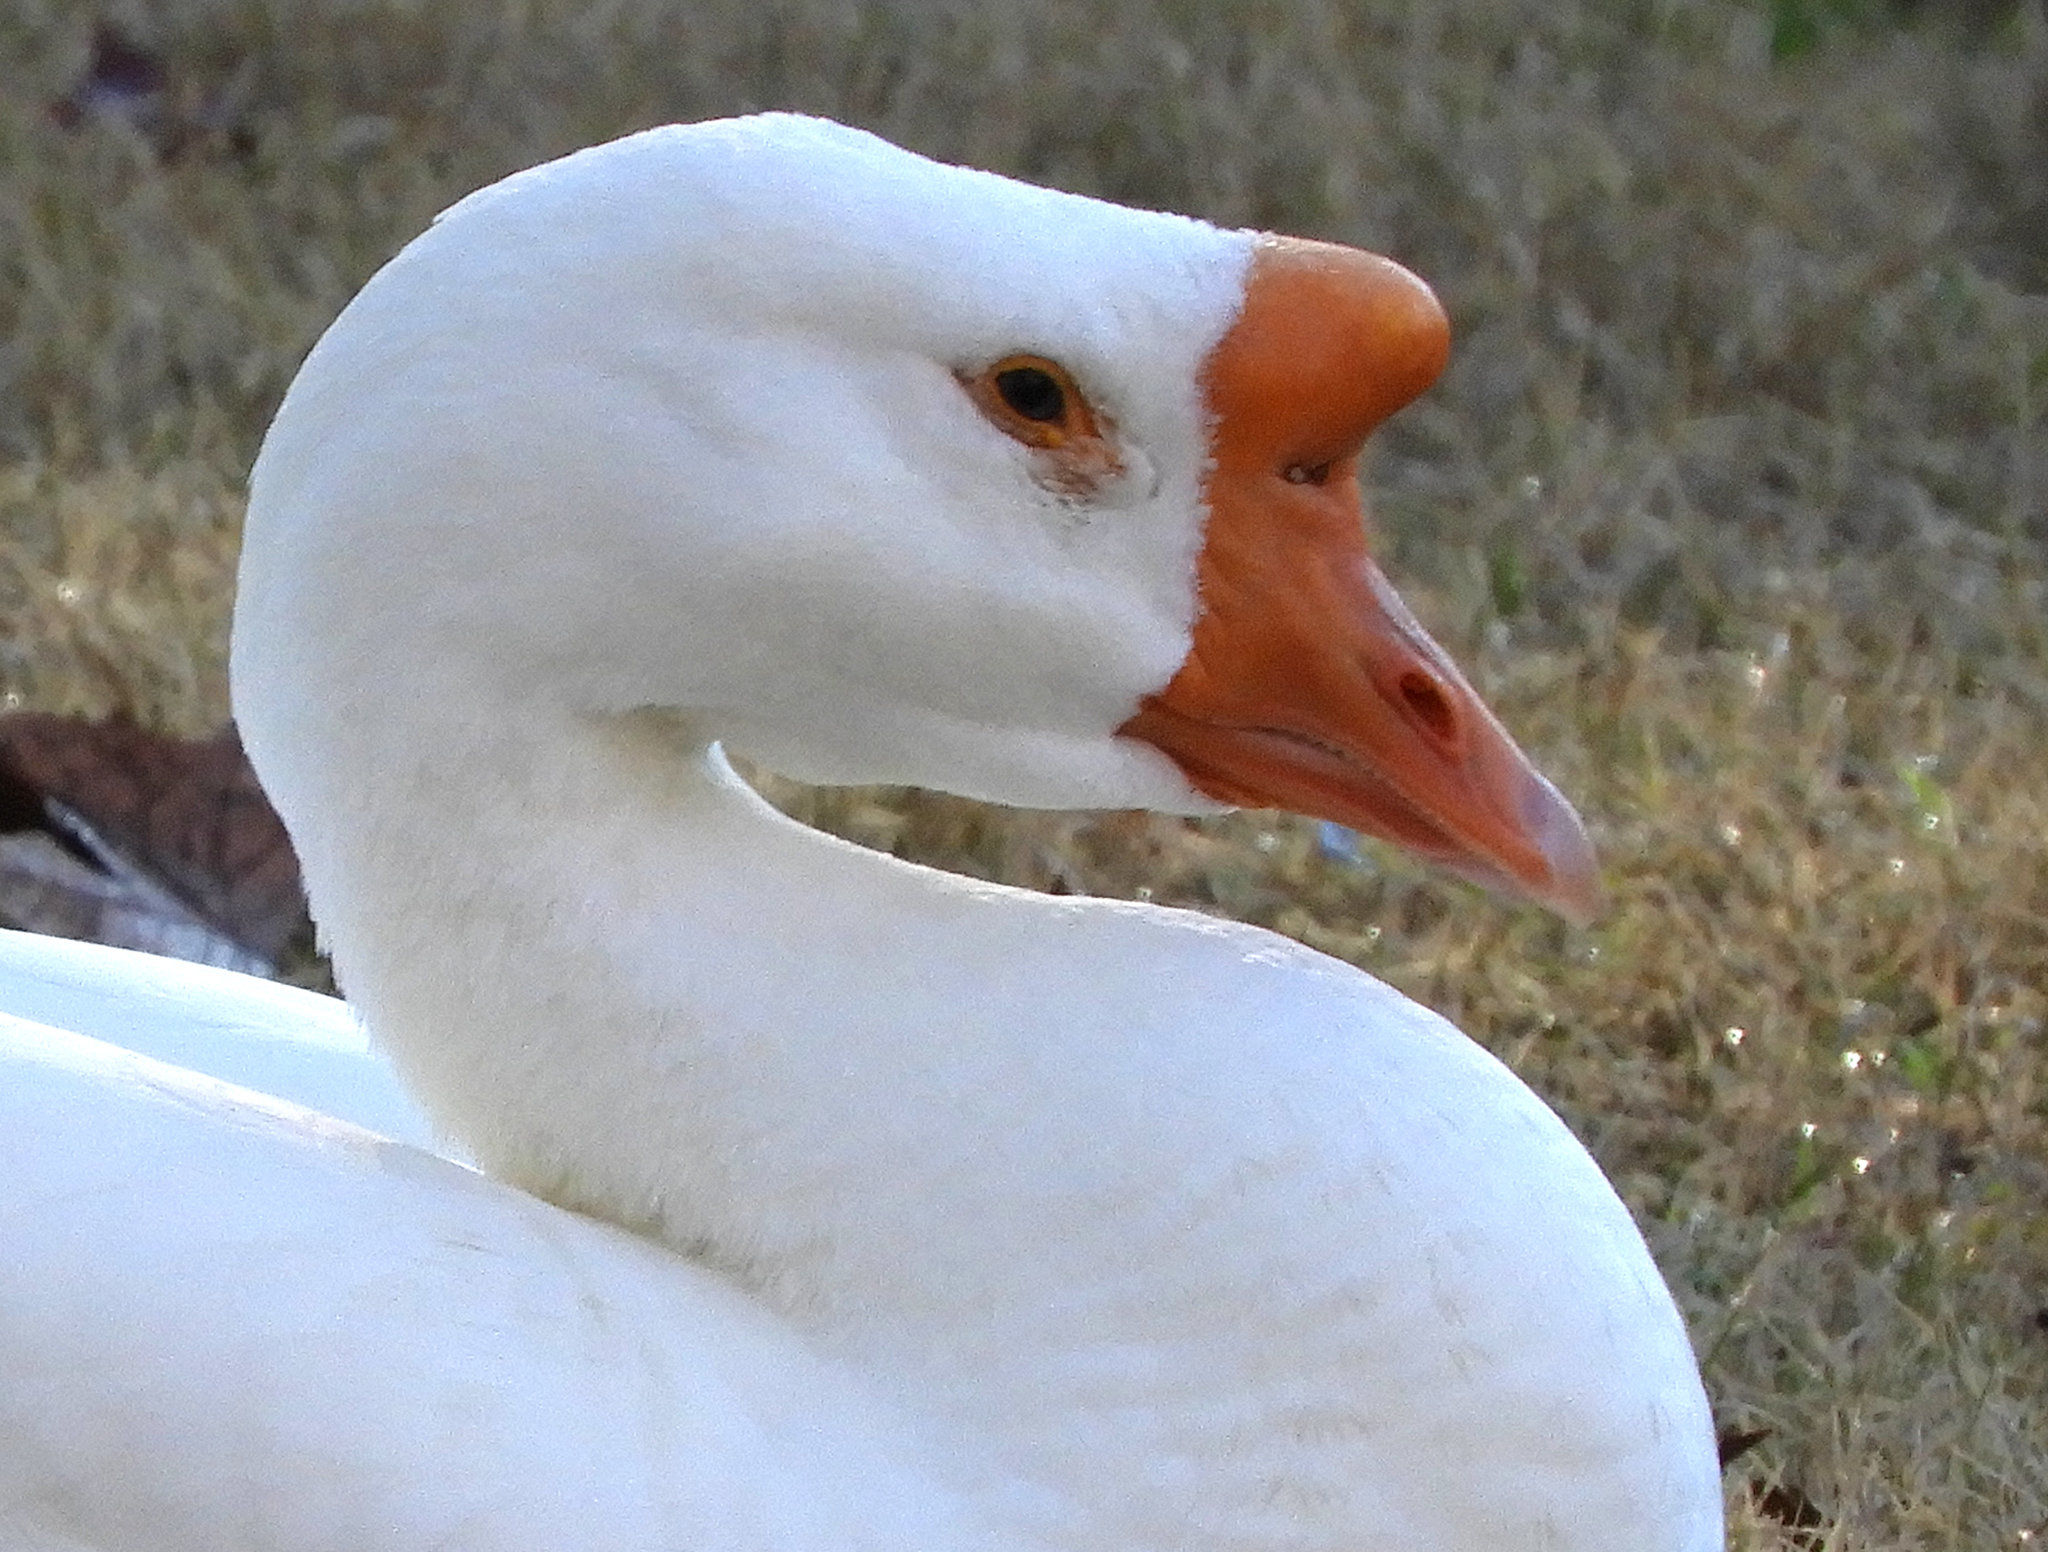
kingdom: Animalia
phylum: Chordata
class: Aves
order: Anseriformes
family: Anatidae
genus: Anser
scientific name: Anser cygnoides
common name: Swan goose
